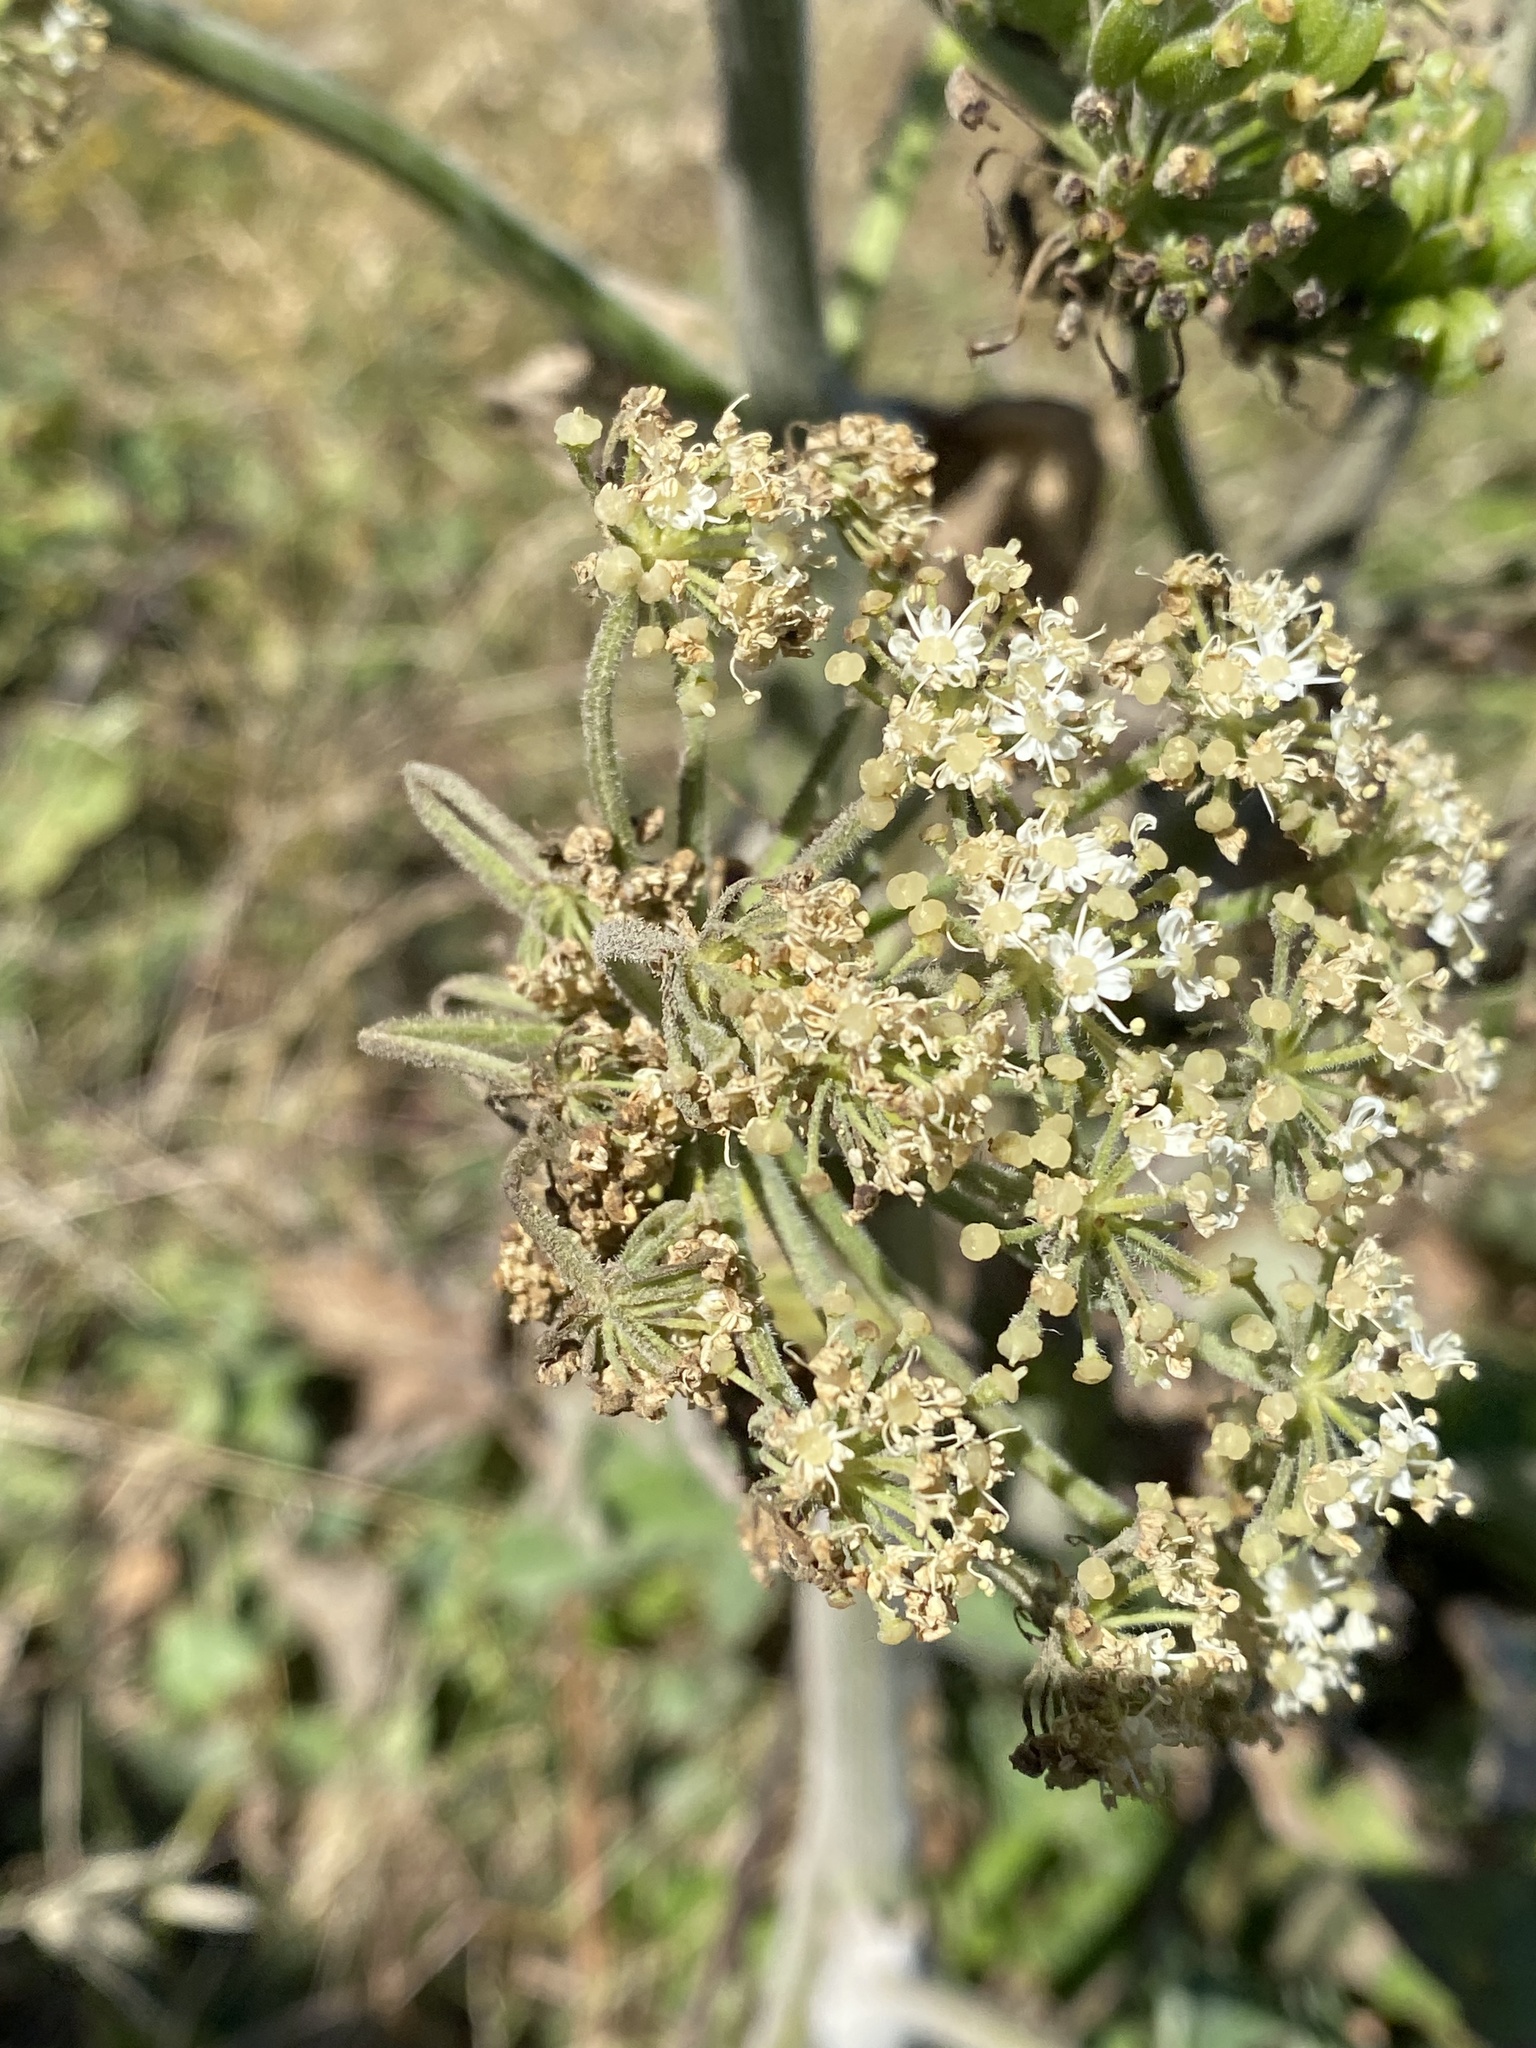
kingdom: Plantae
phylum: Tracheophyta
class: Magnoliopsida
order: Apiales
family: Apiaceae
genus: Heracleum
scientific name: Heracleum maximum
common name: American cow parsnip
